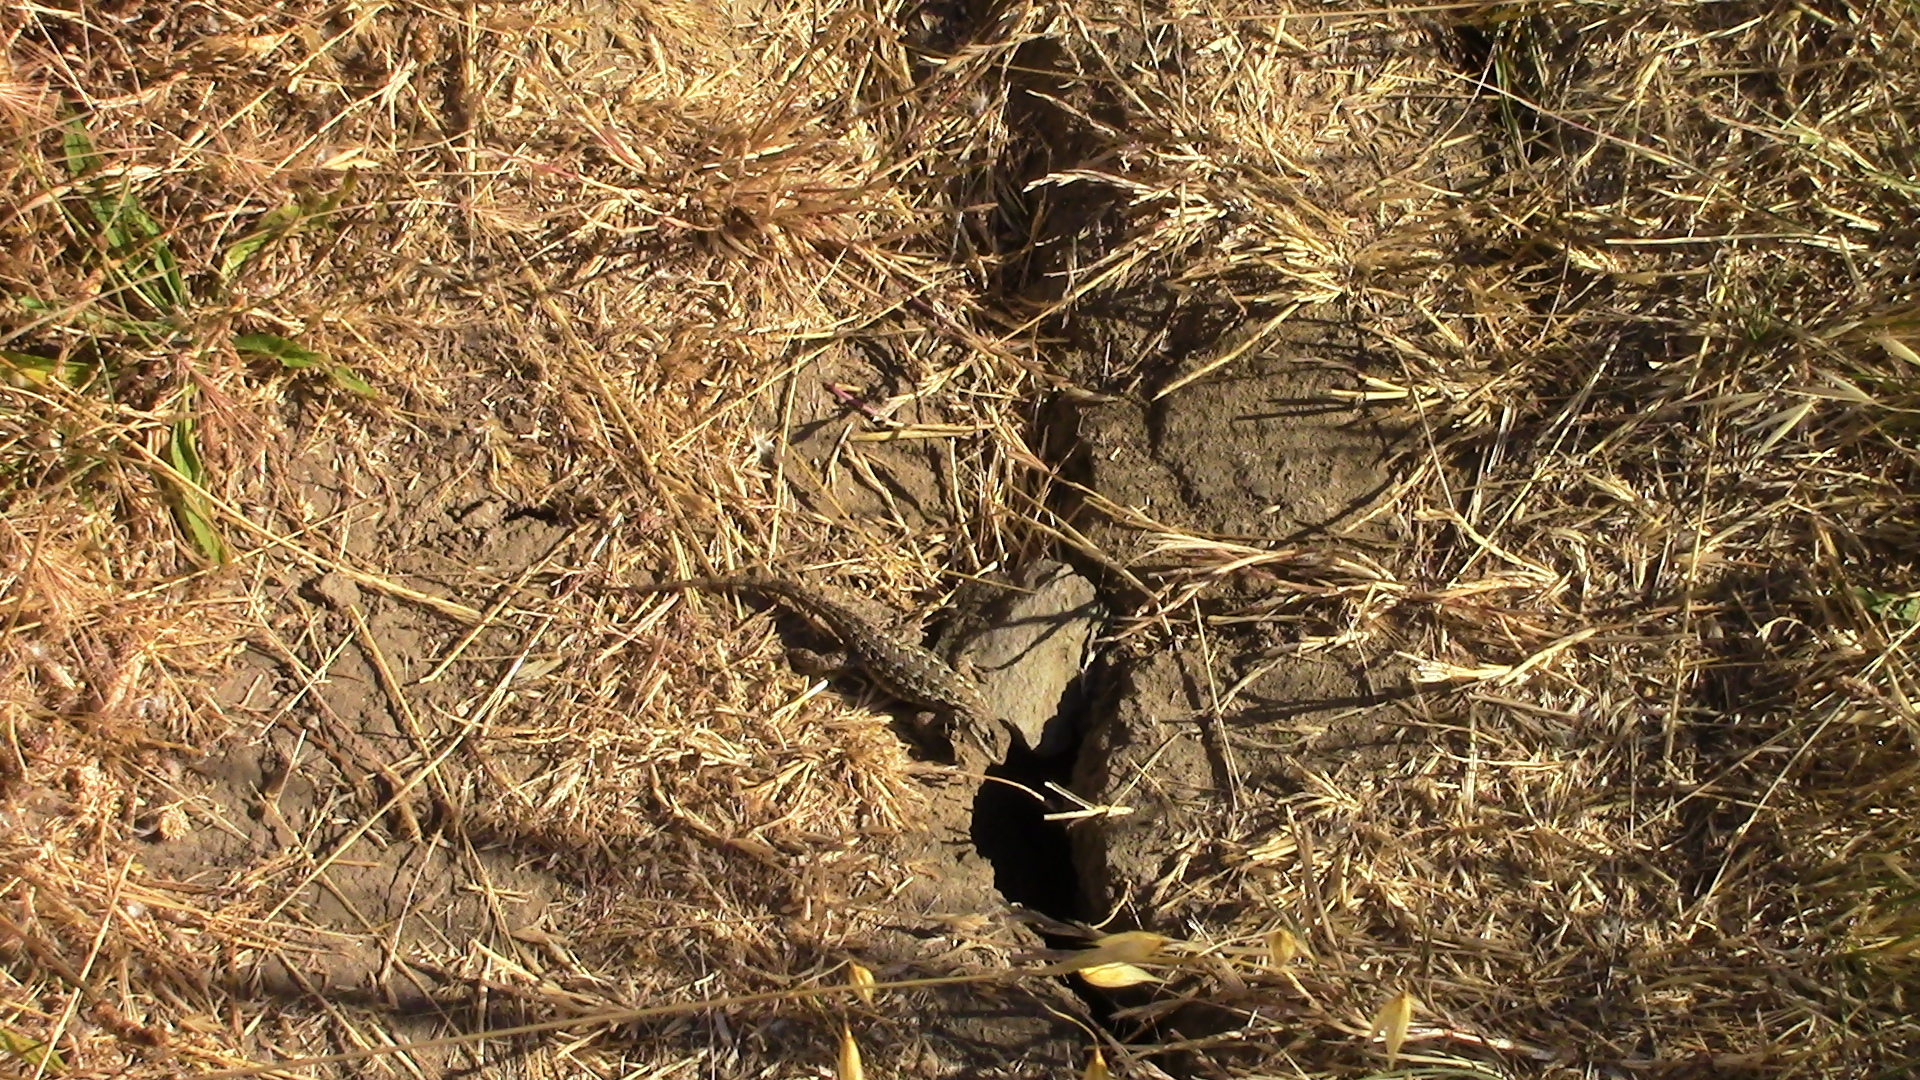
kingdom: Animalia
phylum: Chordata
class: Squamata
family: Phrynosomatidae
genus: Sceloporus
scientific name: Sceloporus occidentalis
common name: Western fence lizard
